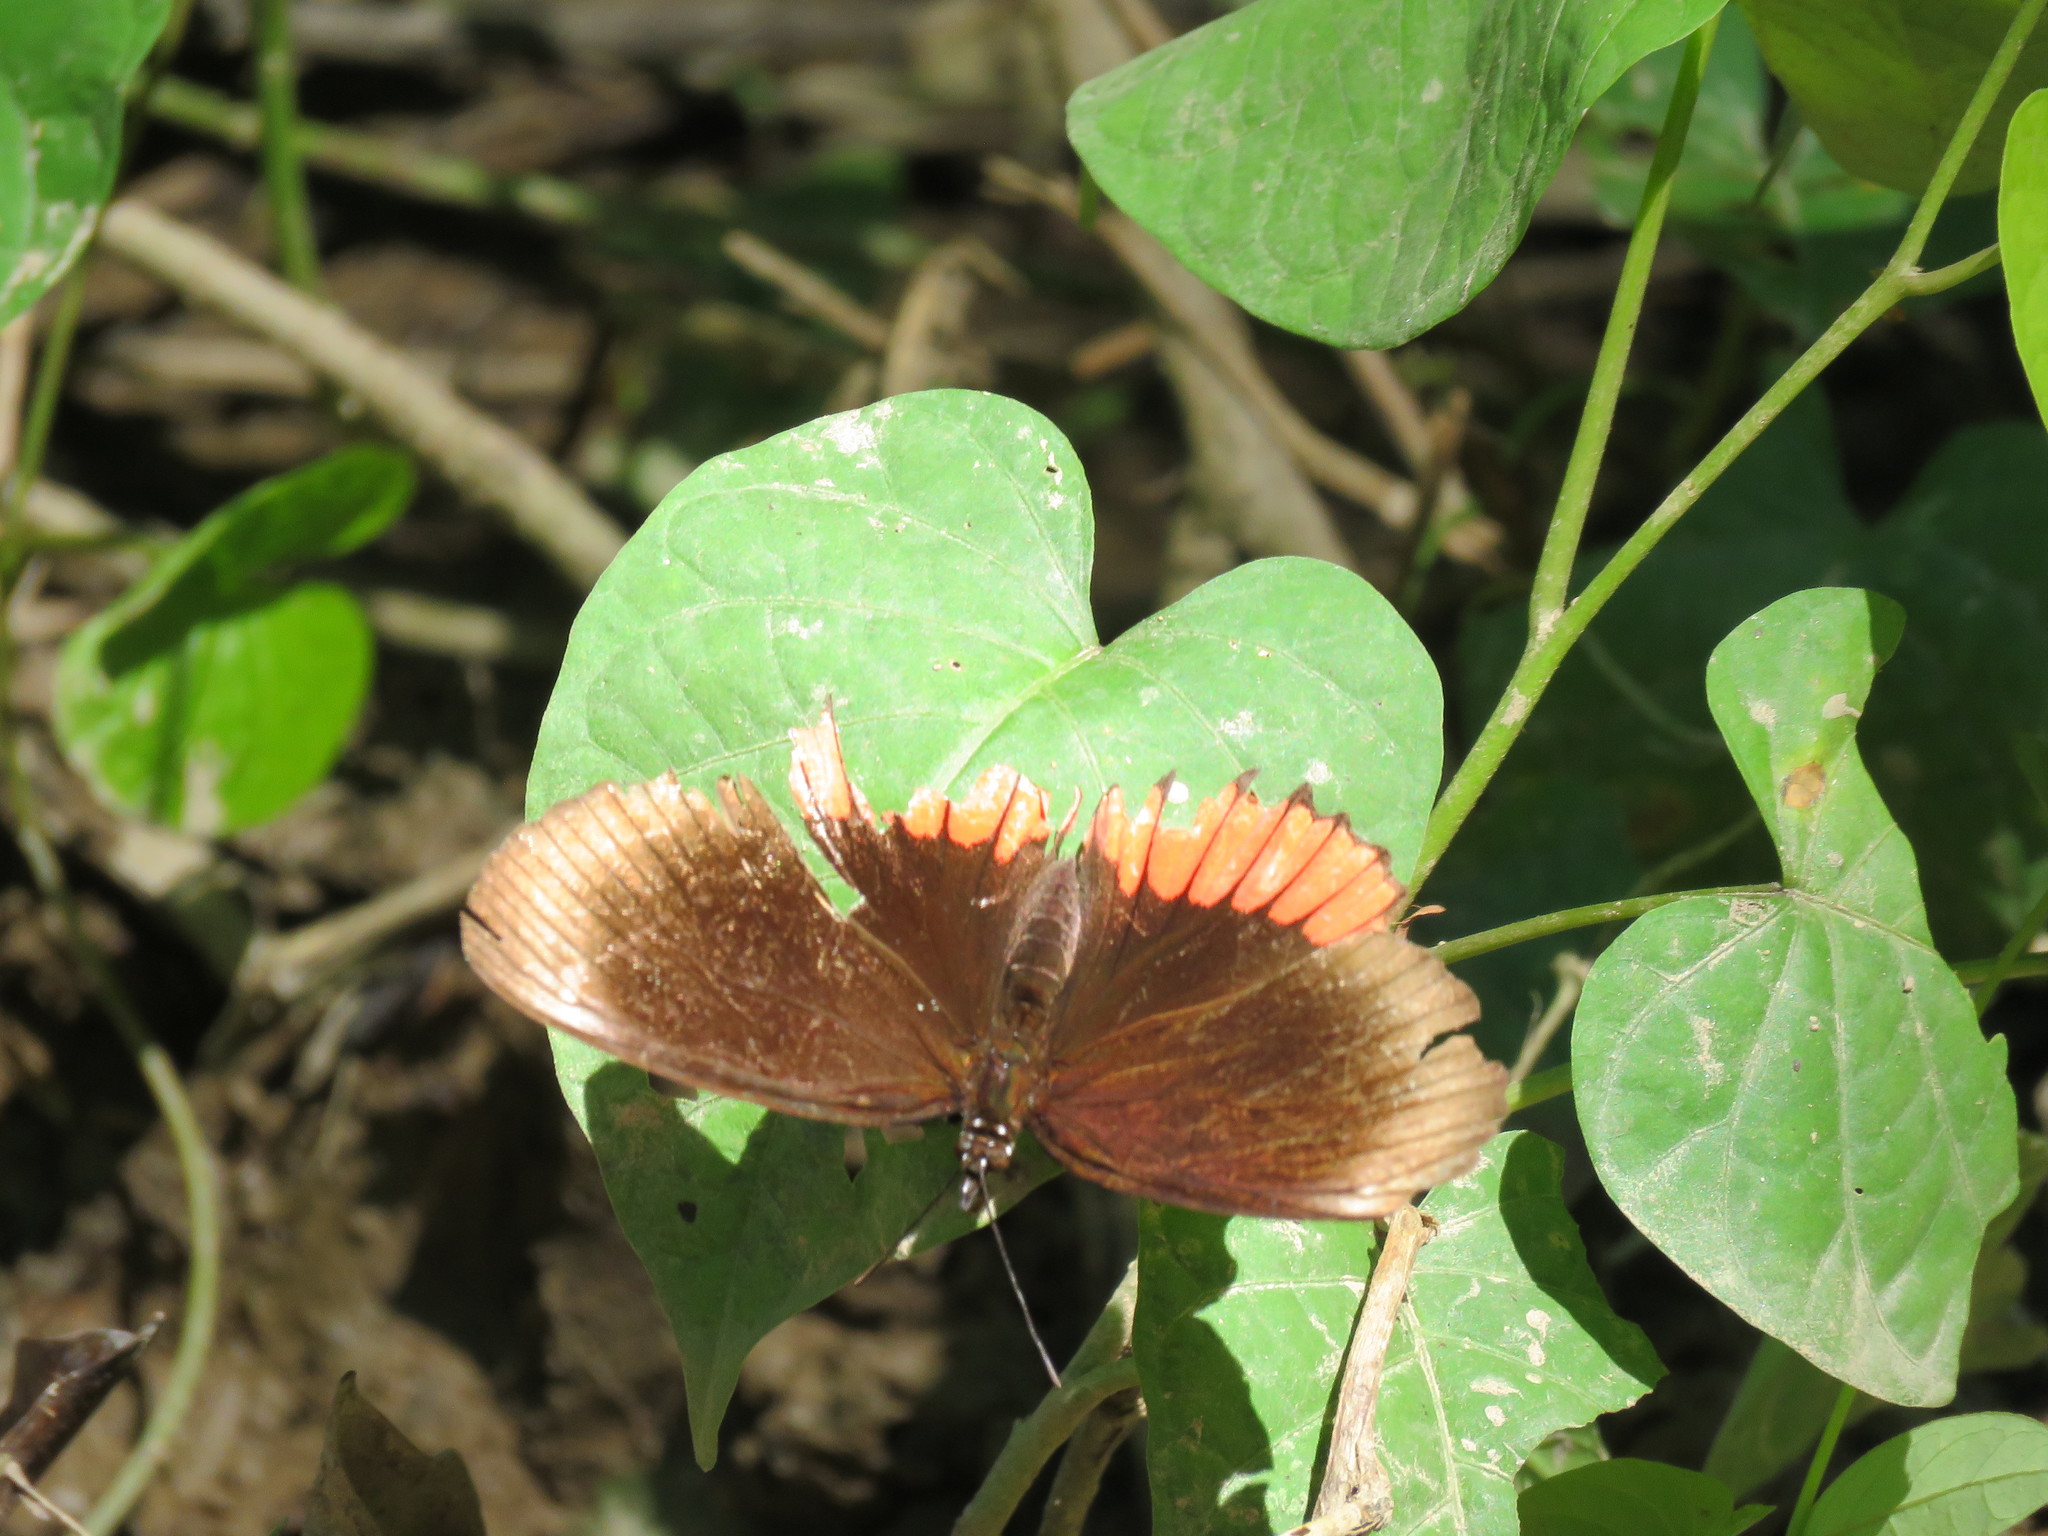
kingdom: Animalia
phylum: Arthropoda
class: Insecta
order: Lepidoptera
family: Sesiidae
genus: Sesia
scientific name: Sesia Biblis hyperia
